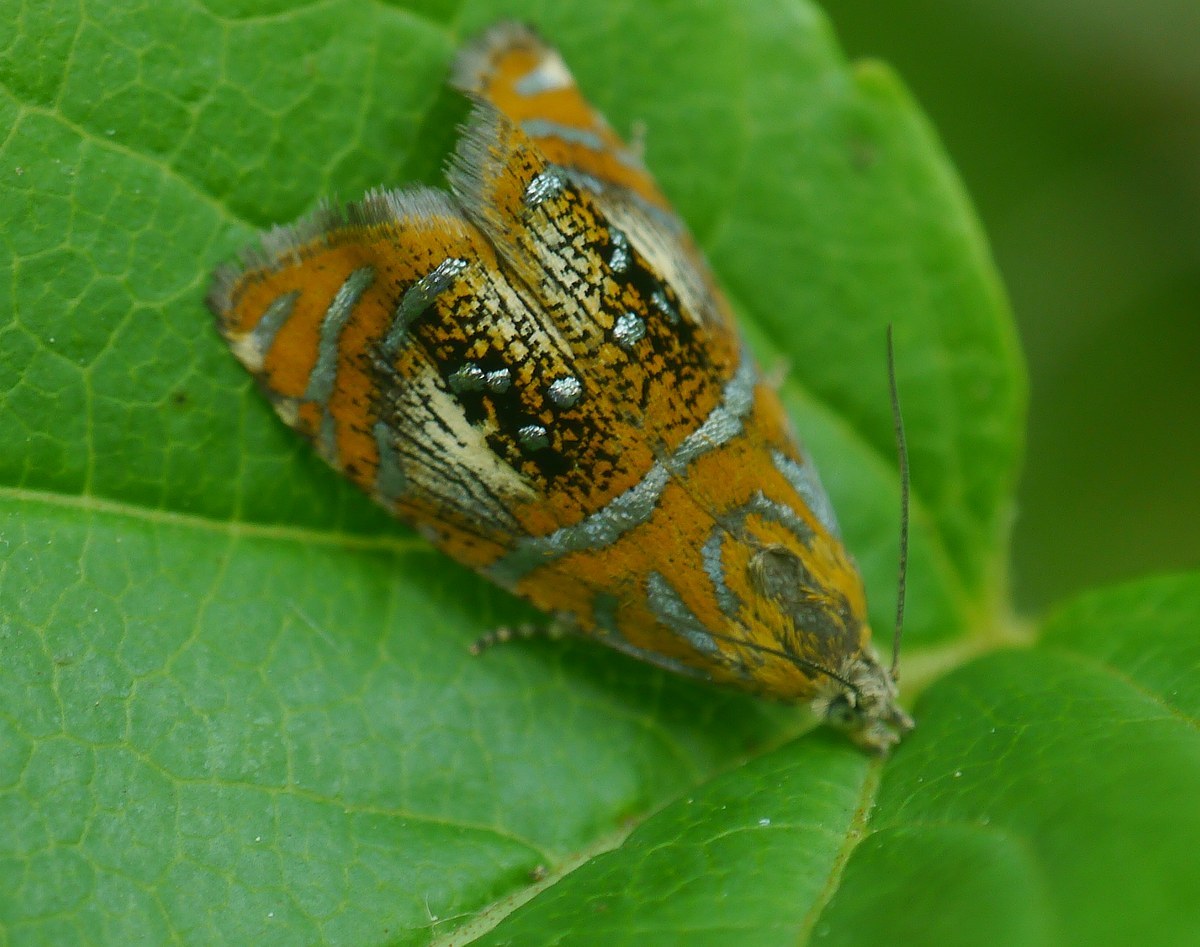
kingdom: Animalia
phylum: Arthropoda
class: Insecta
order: Lepidoptera
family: Tortricidae
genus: Olethreutes
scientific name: Olethreutes arcuella
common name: Arched marble
